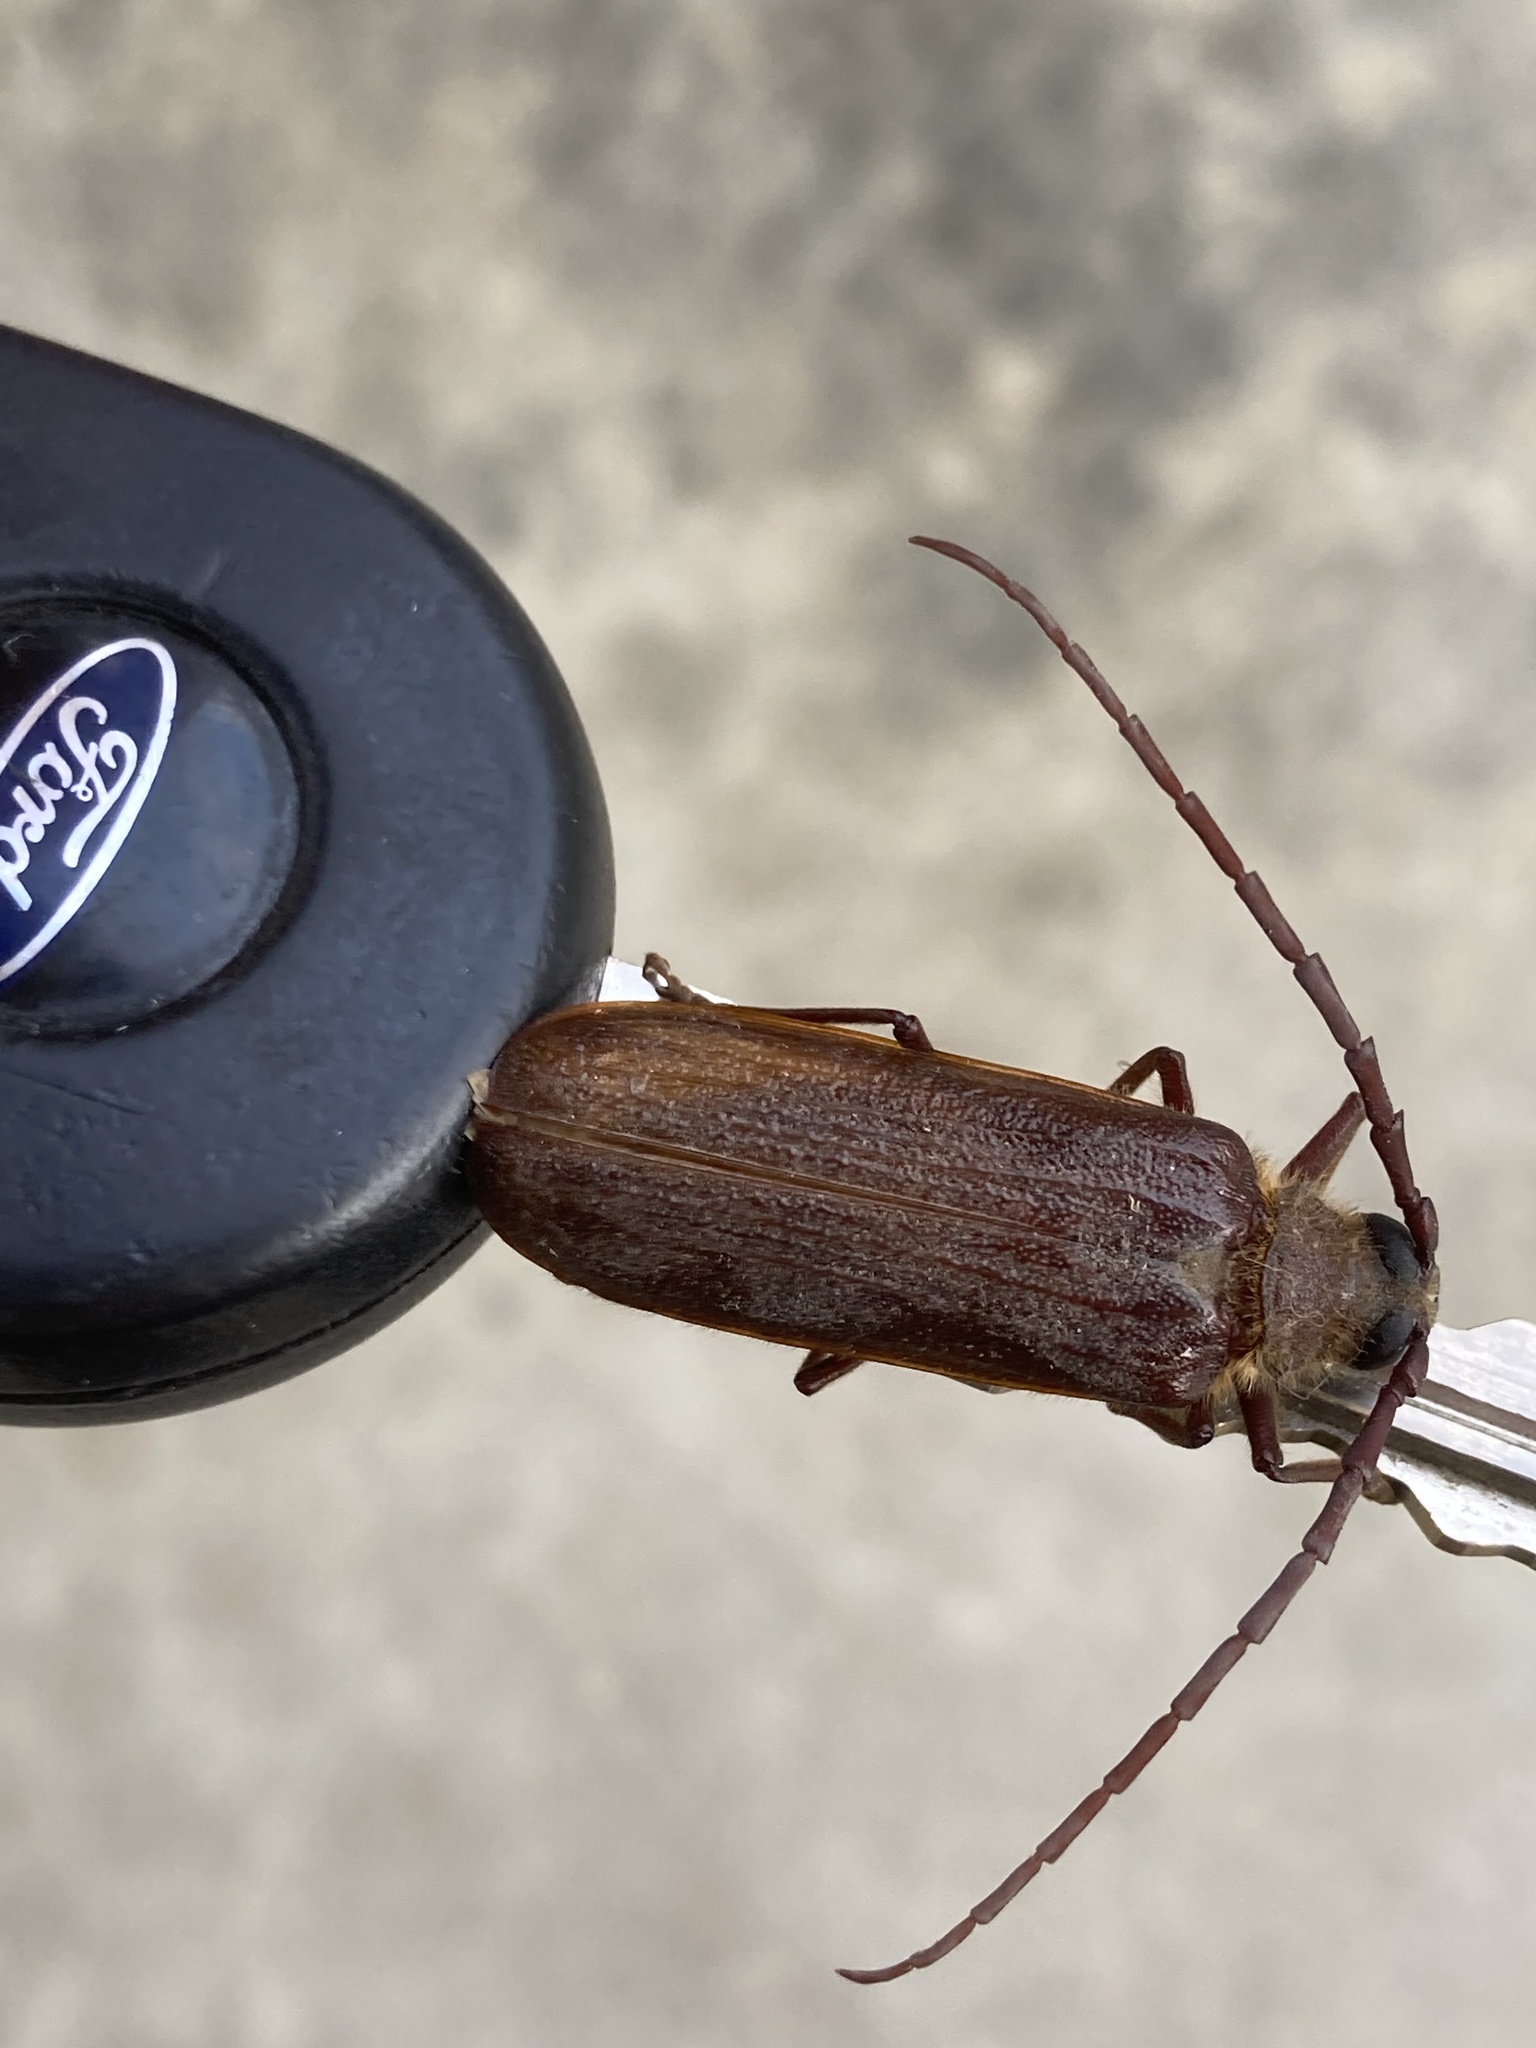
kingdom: Animalia
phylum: Arthropoda
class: Insecta
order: Coleoptera
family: Cerambycidae
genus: Tragosoma
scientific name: Tragosoma harrisii
